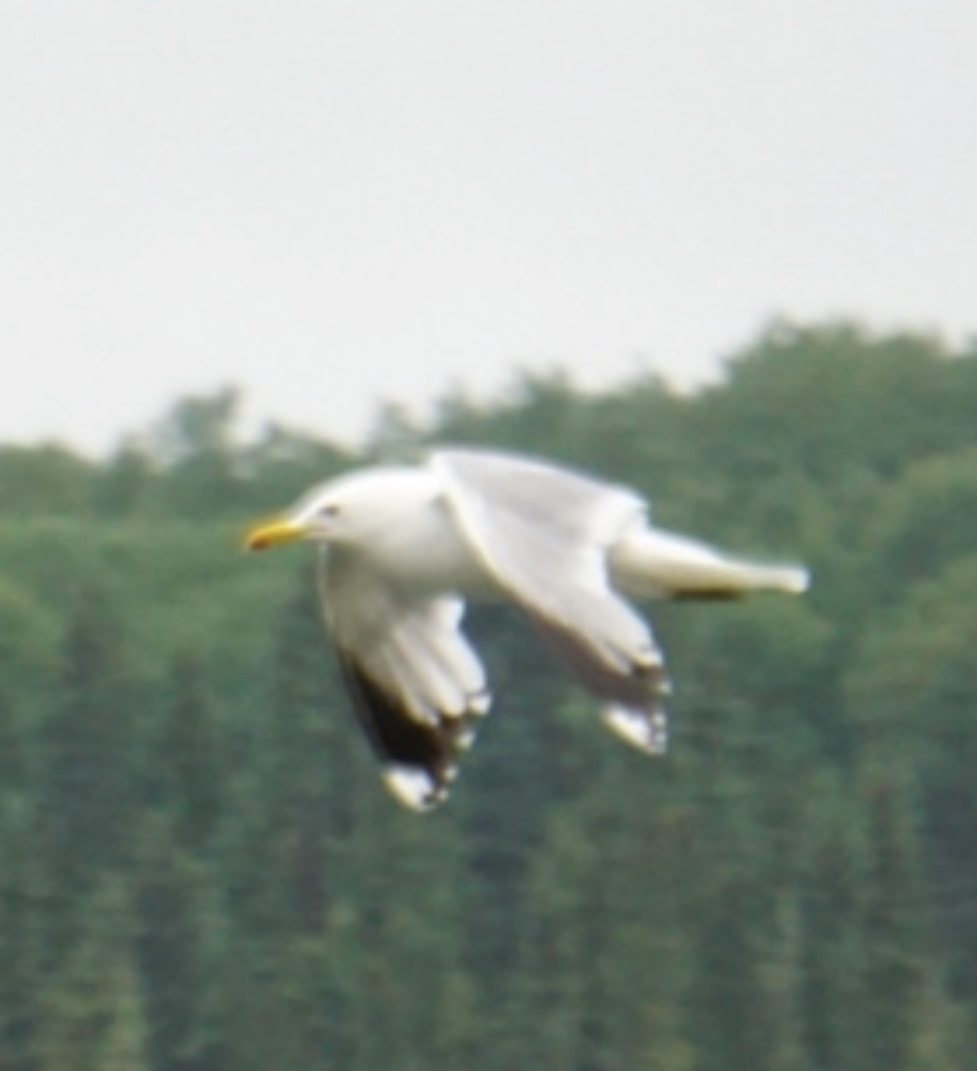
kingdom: Animalia
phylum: Chordata
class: Aves
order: Charadriiformes
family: Laridae
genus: Larus
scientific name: Larus californicus
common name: California gull
